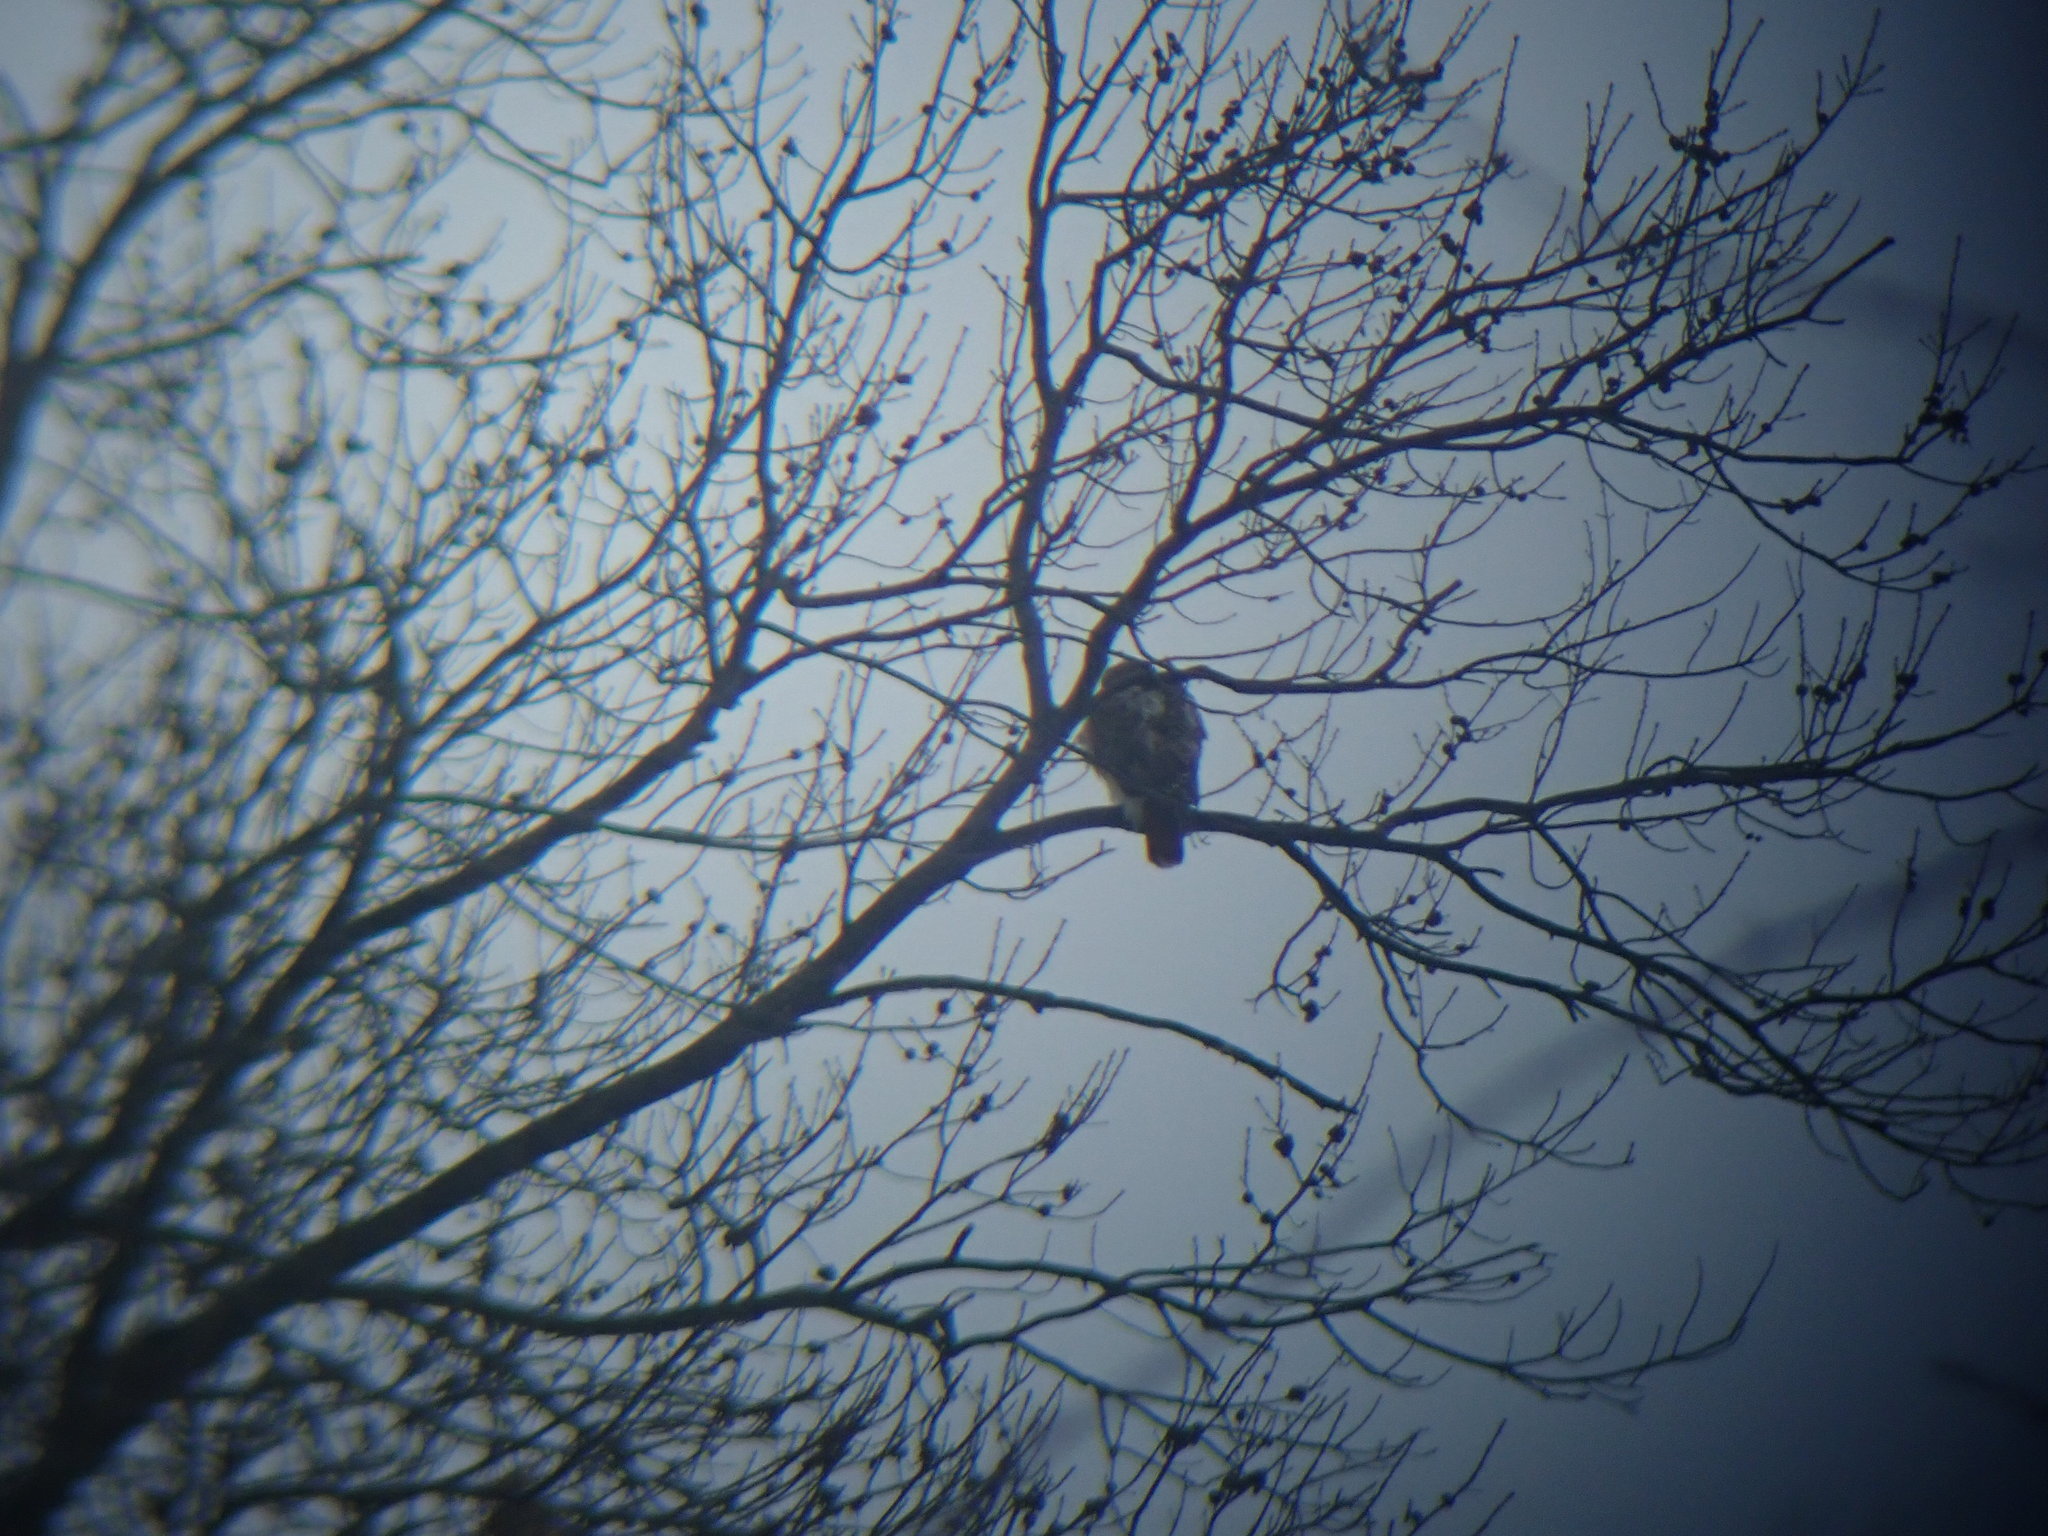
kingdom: Animalia
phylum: Chordata
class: Aves
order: Accipitriformes
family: Accipitridae
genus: Buteo
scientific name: Buteo jamaicensis
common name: Red-tailed hawk
